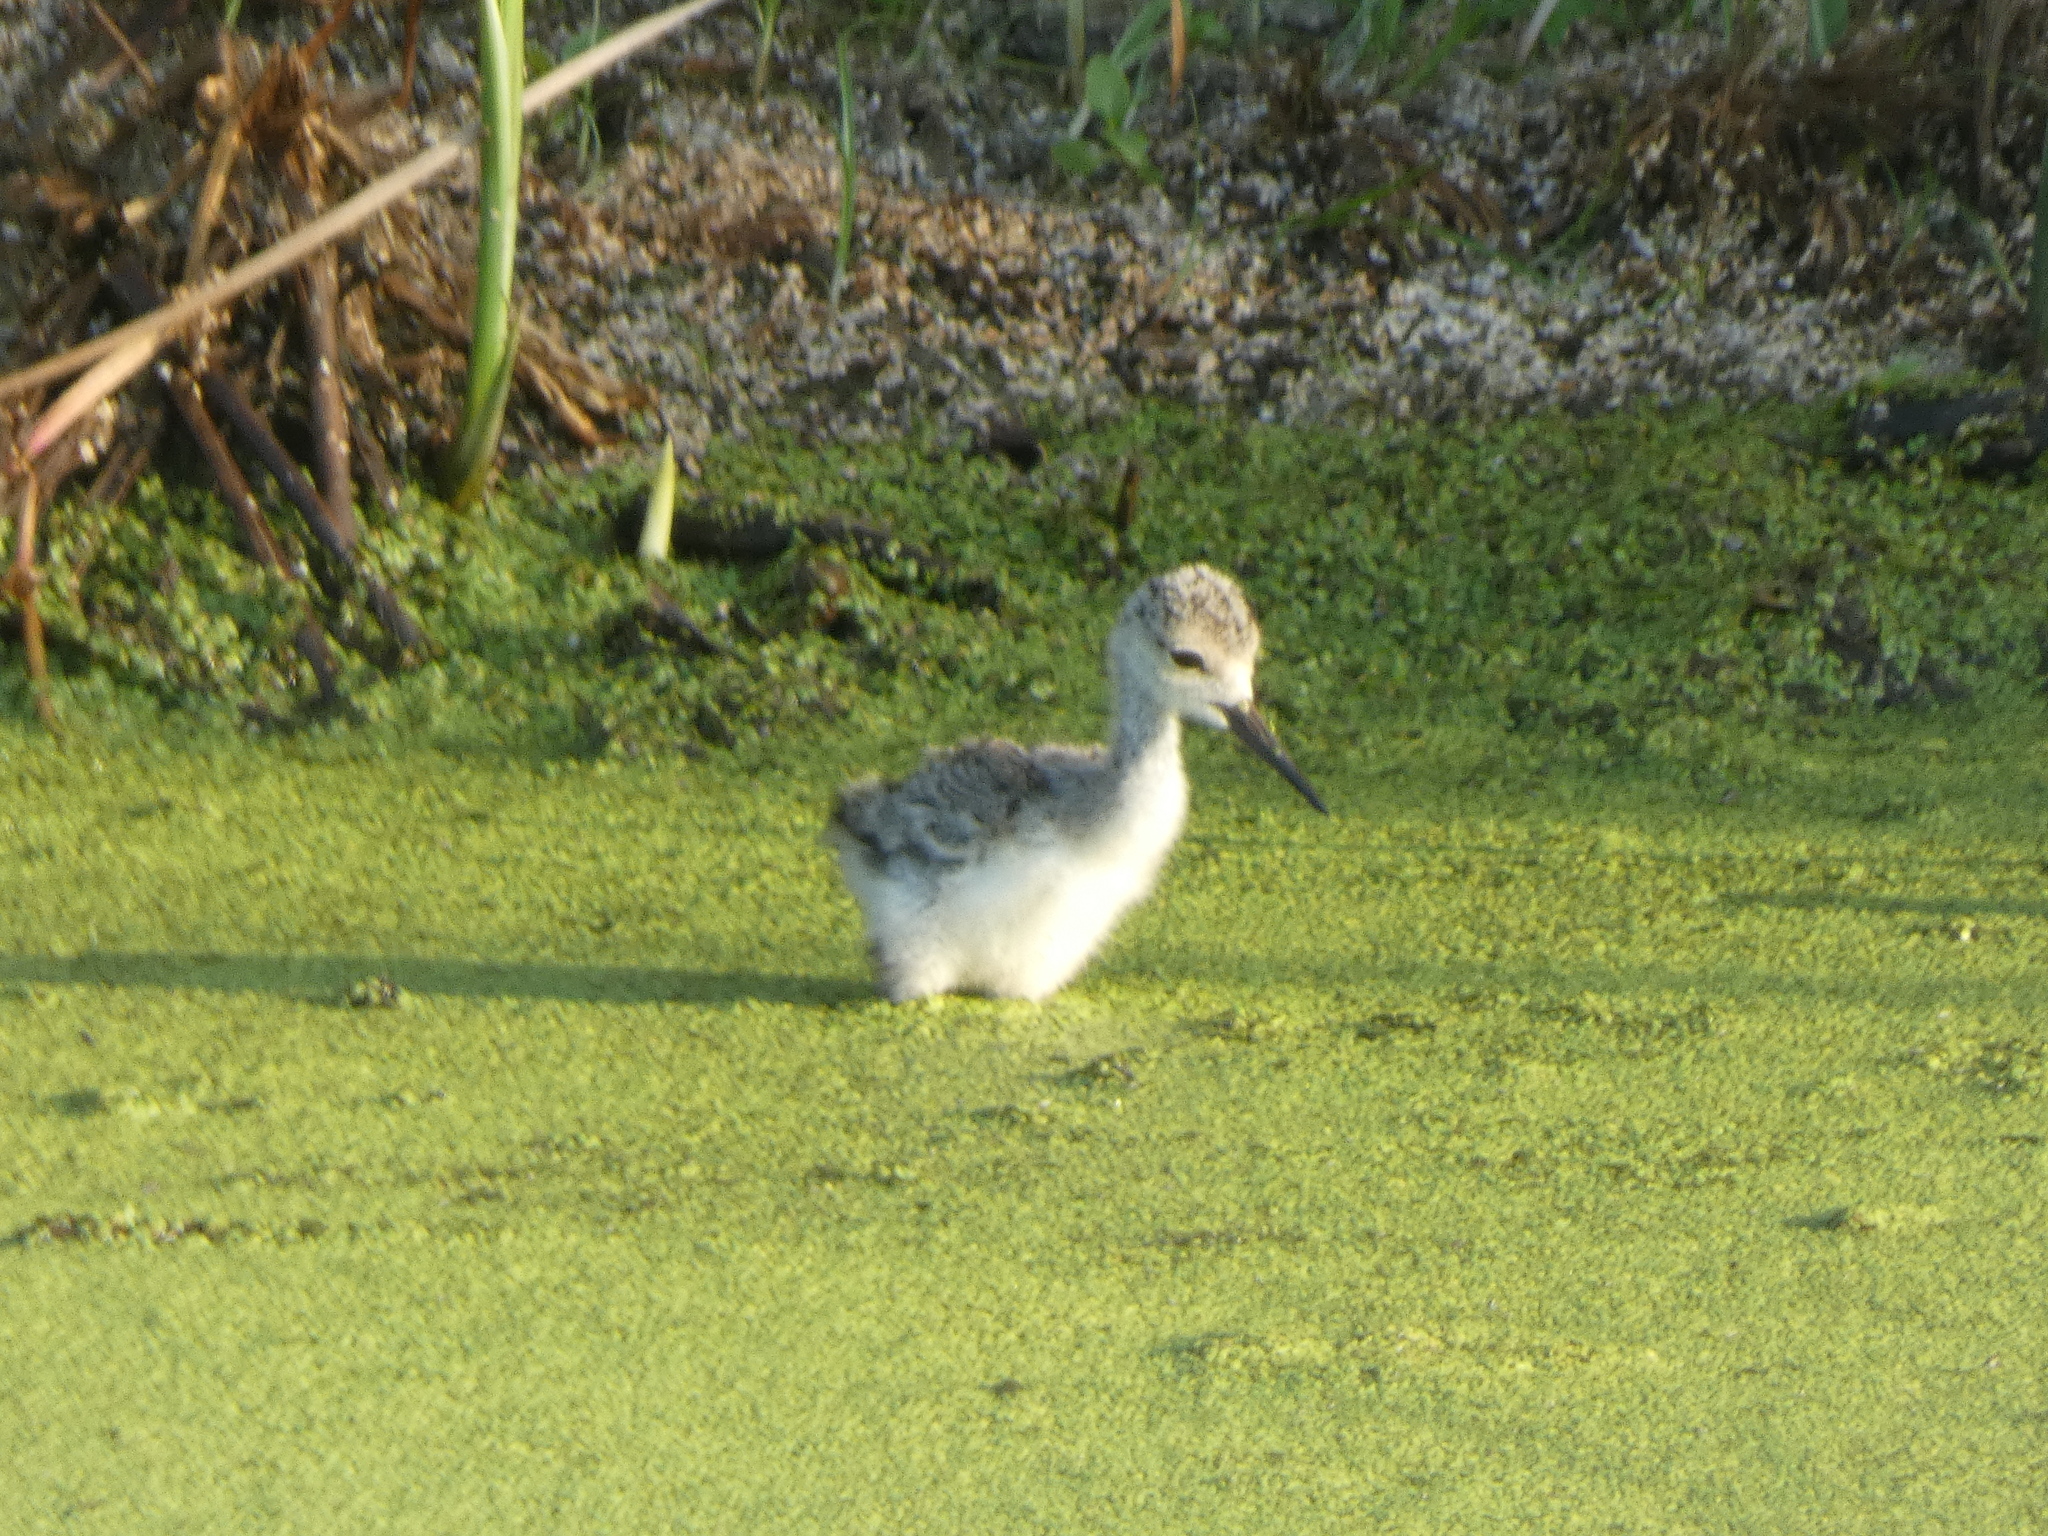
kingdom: Animalia
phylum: Chordata
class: Aves
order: Charadriiformes
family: Recurvirostridae
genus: Himantopus
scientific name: Himantopus mexicanus
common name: Black-necked stilt
